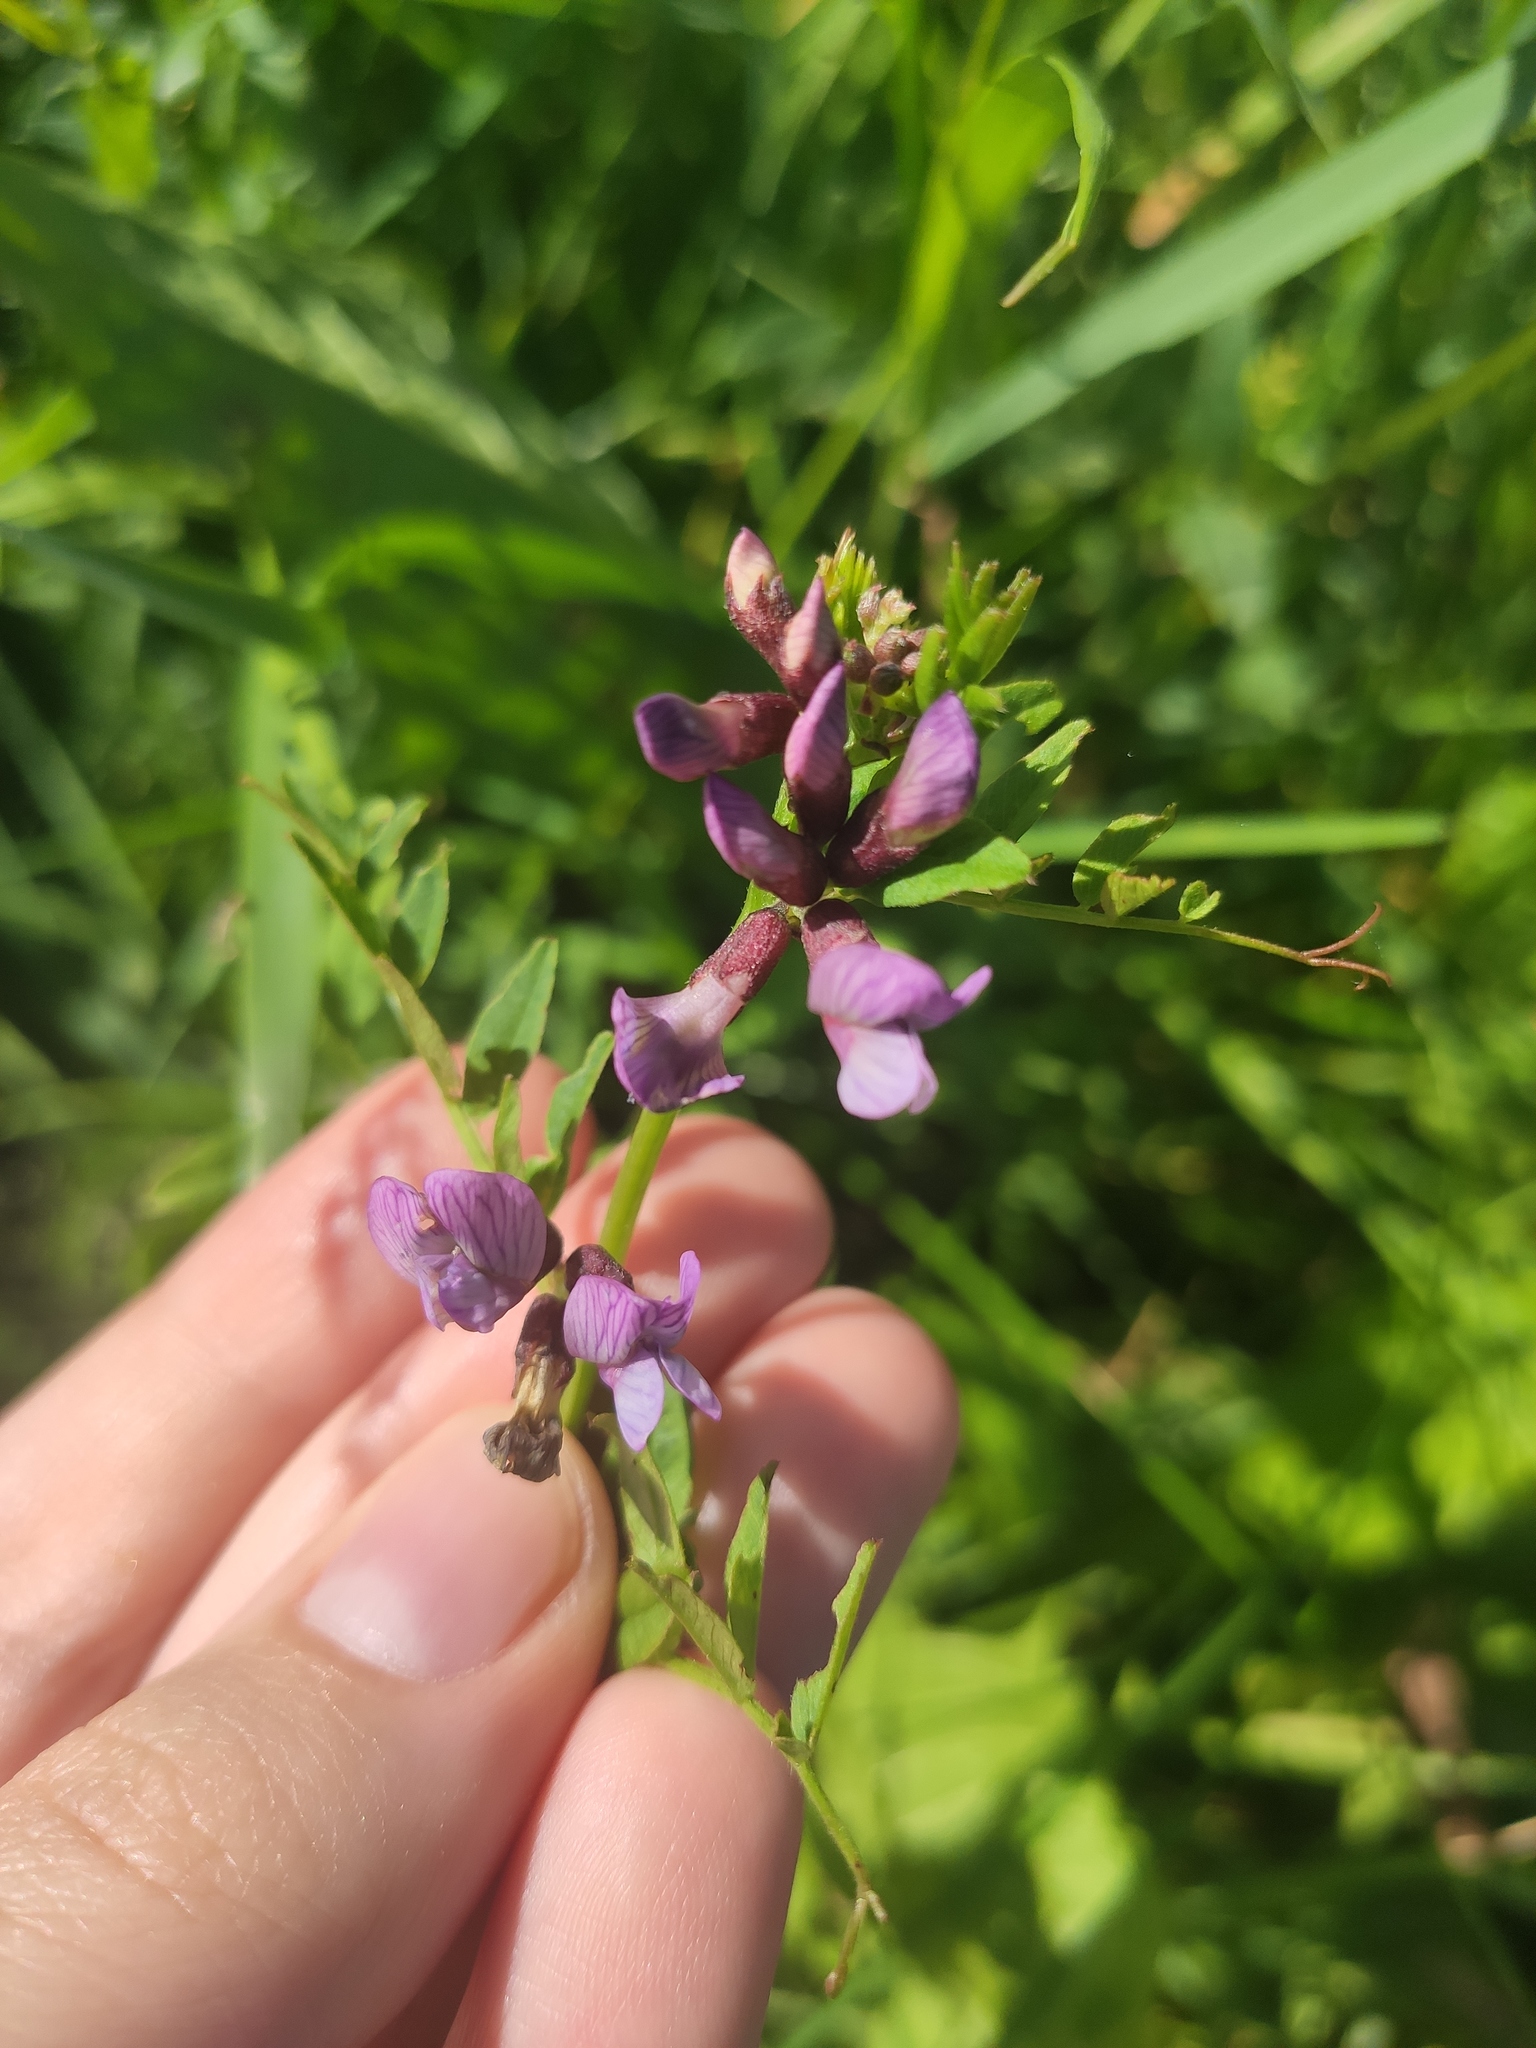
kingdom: Plantae
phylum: Tracheophyta
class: Magnoliopsida
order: Fabales
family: Fabaceae
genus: Vicia
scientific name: Vicia sepium
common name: Bush vetch
